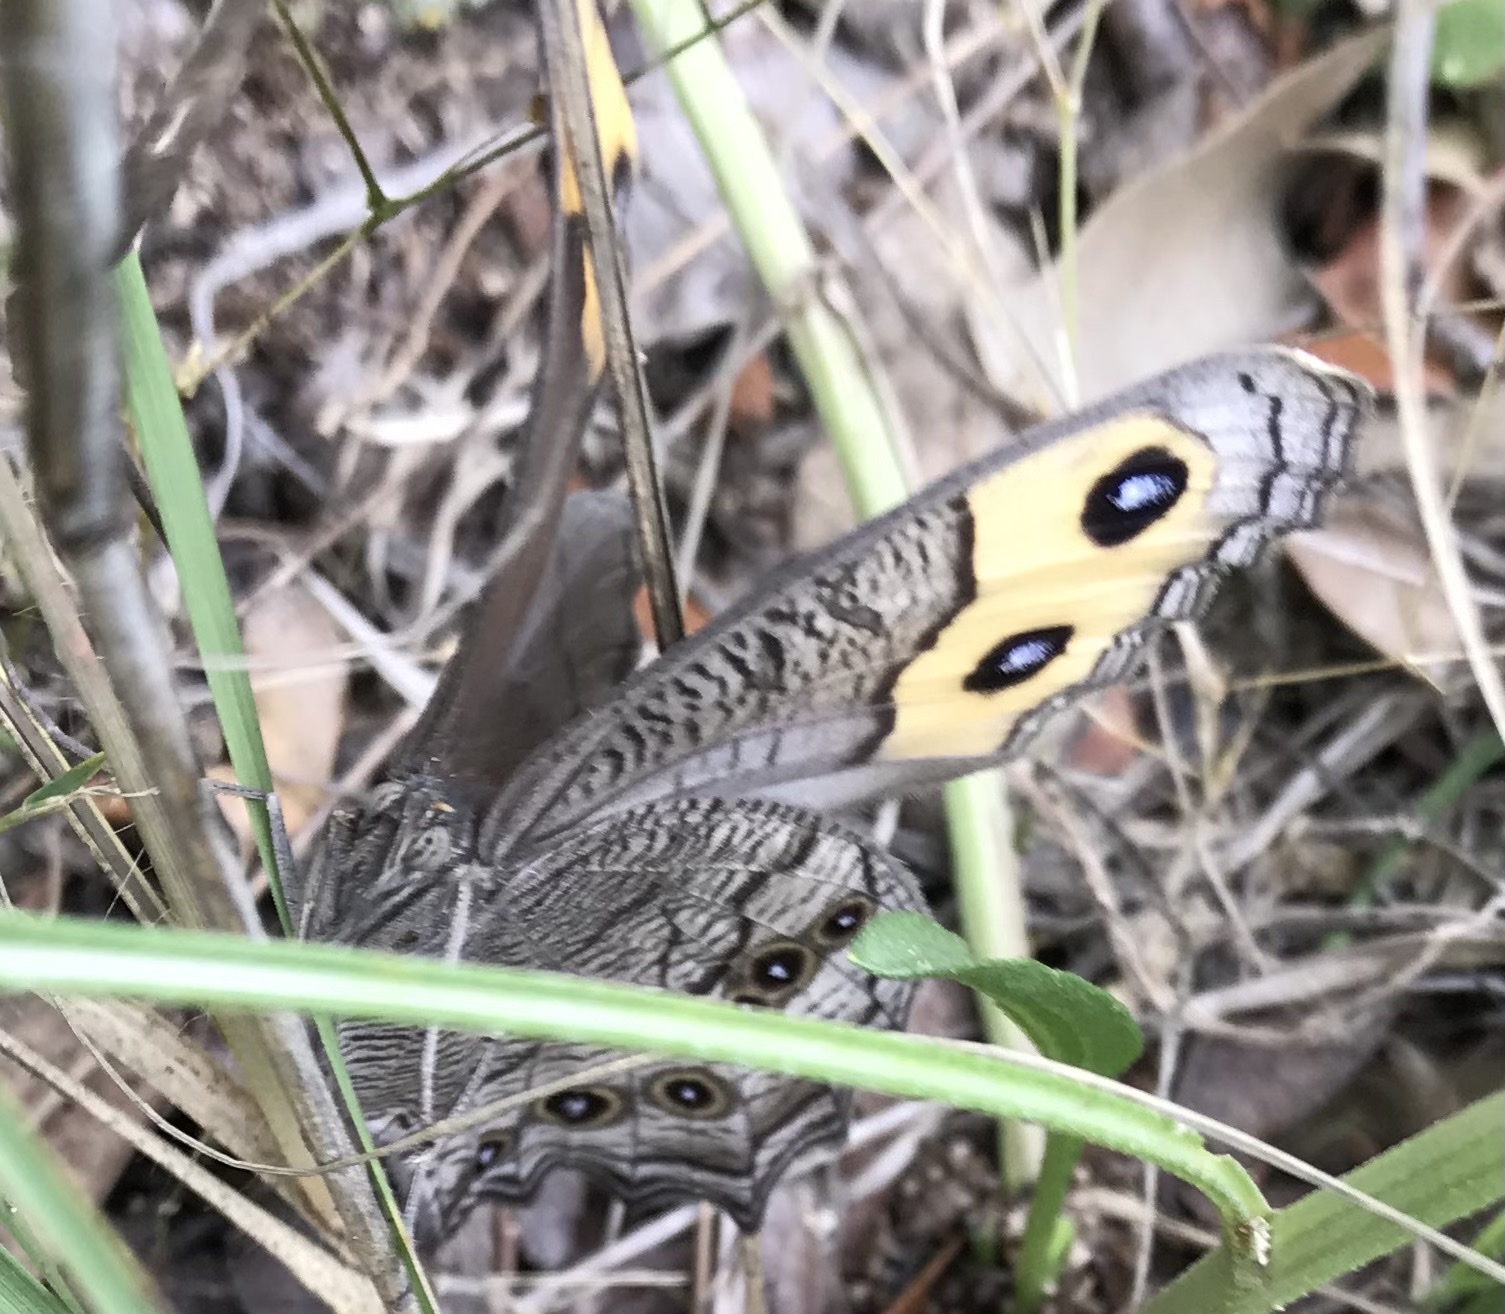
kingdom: Animalia
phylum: Arthropoda
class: Insecta
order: Lepidoptera
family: Nymphalidae
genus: Cercyonis
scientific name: Cercyonis pegala
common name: Common wood-nymph
